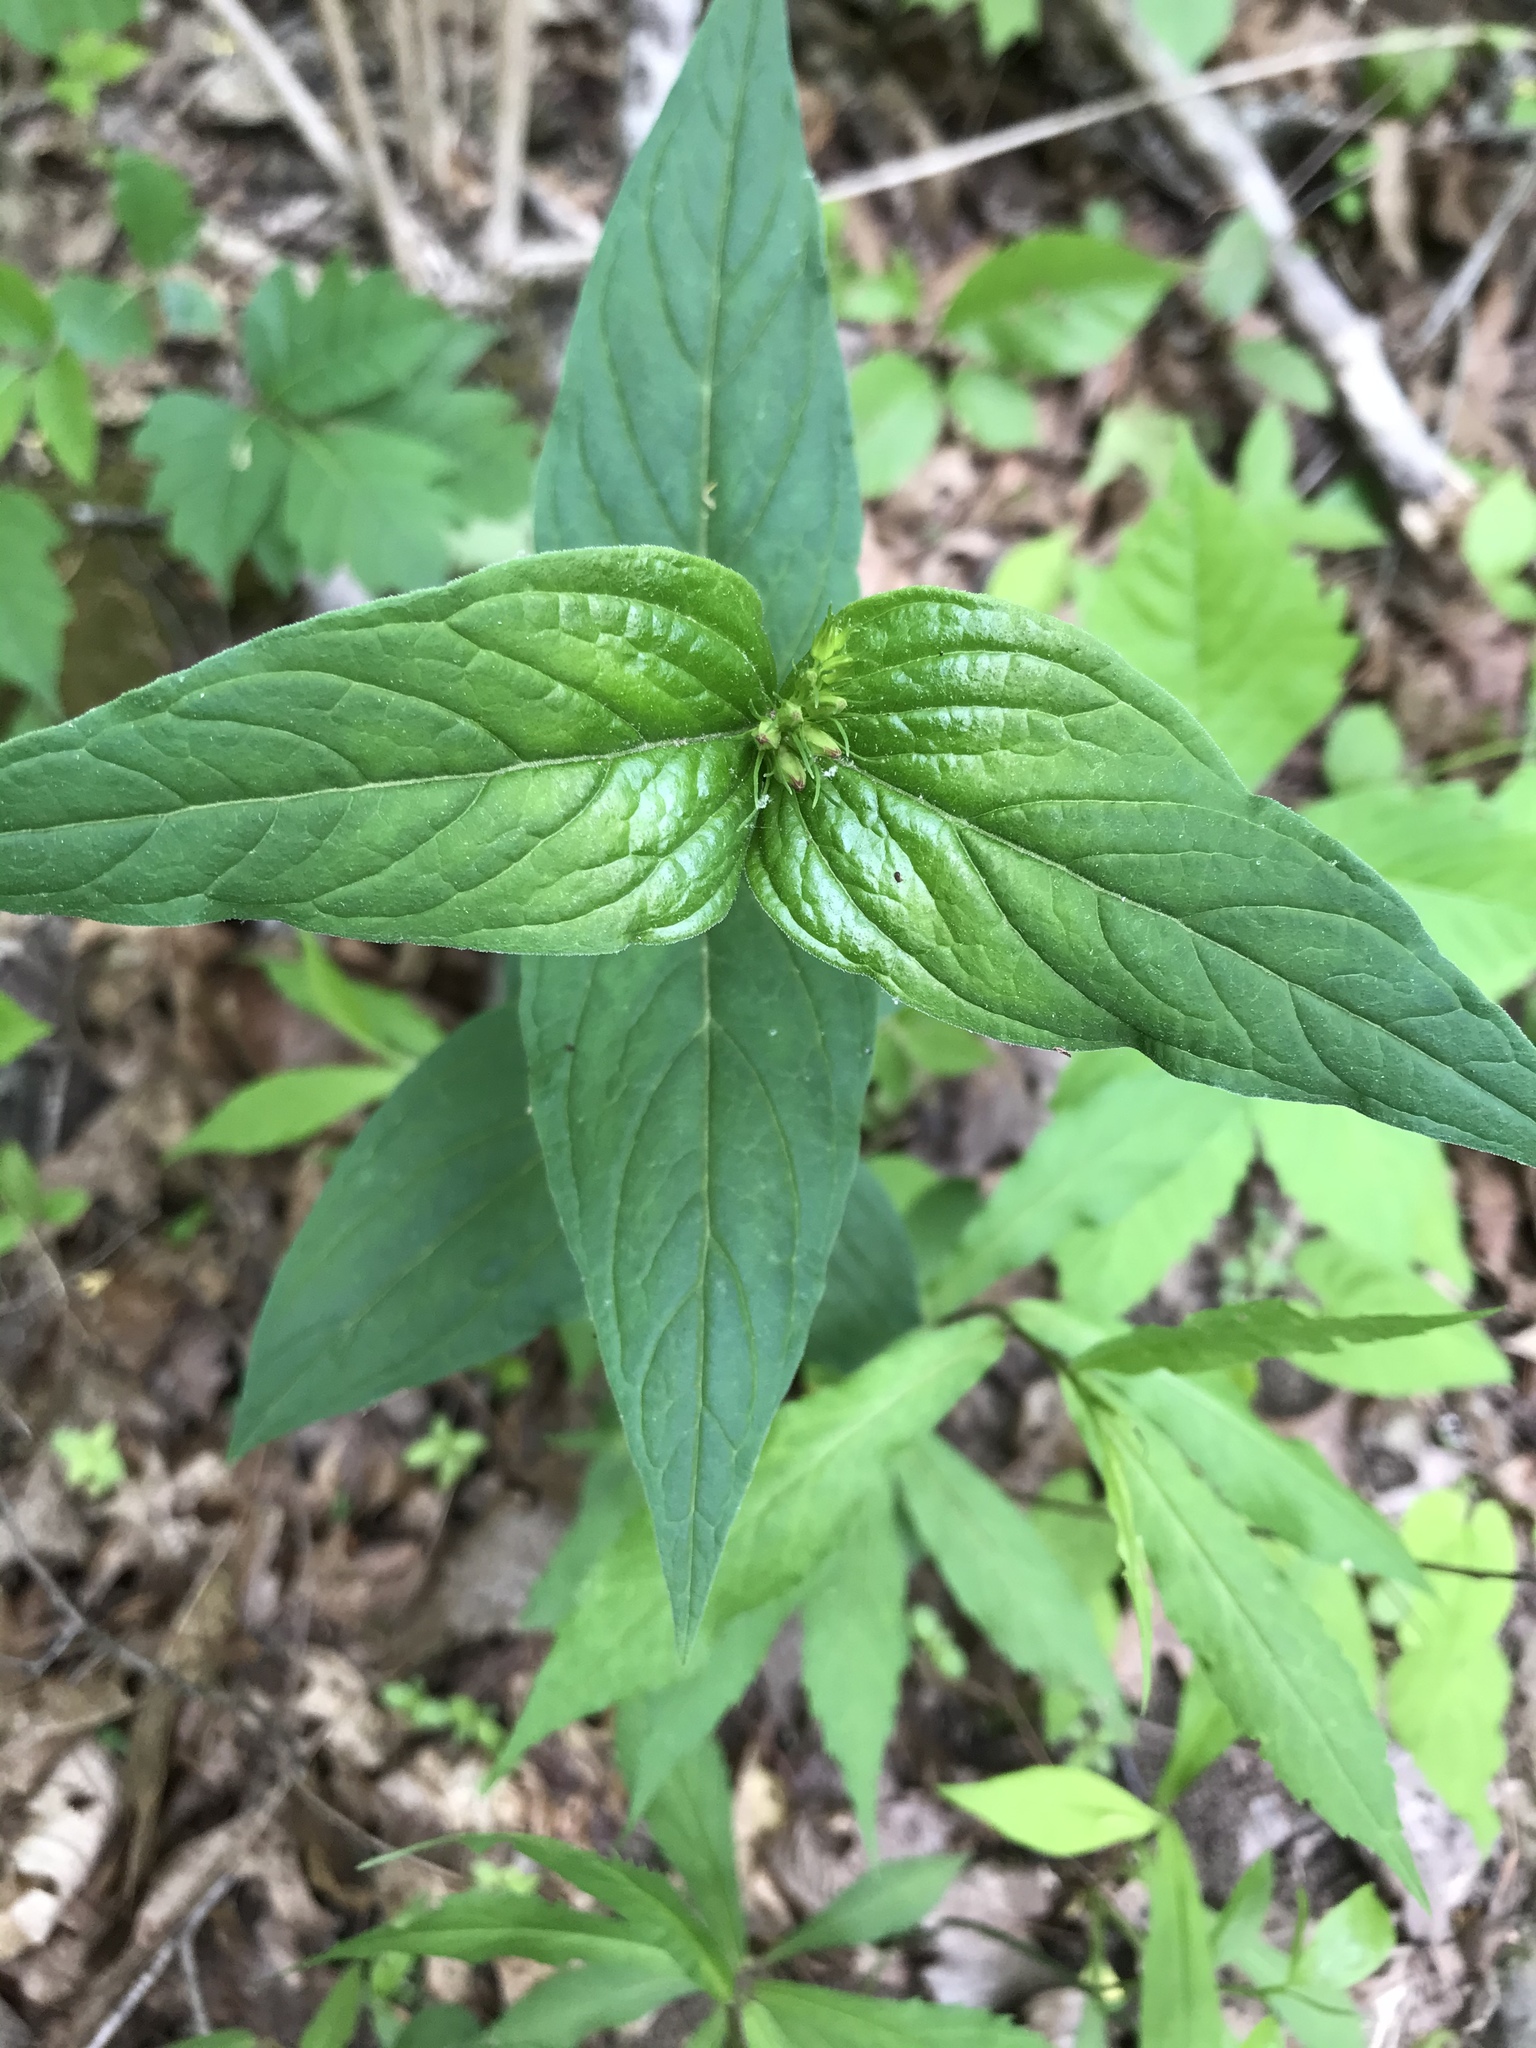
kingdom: Plantae
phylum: Tracheophyta
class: Magnoliopsida
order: Gentianales
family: Loganiaceae
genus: Spigelia
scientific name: Spigelia marilandica
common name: Indian-pink
